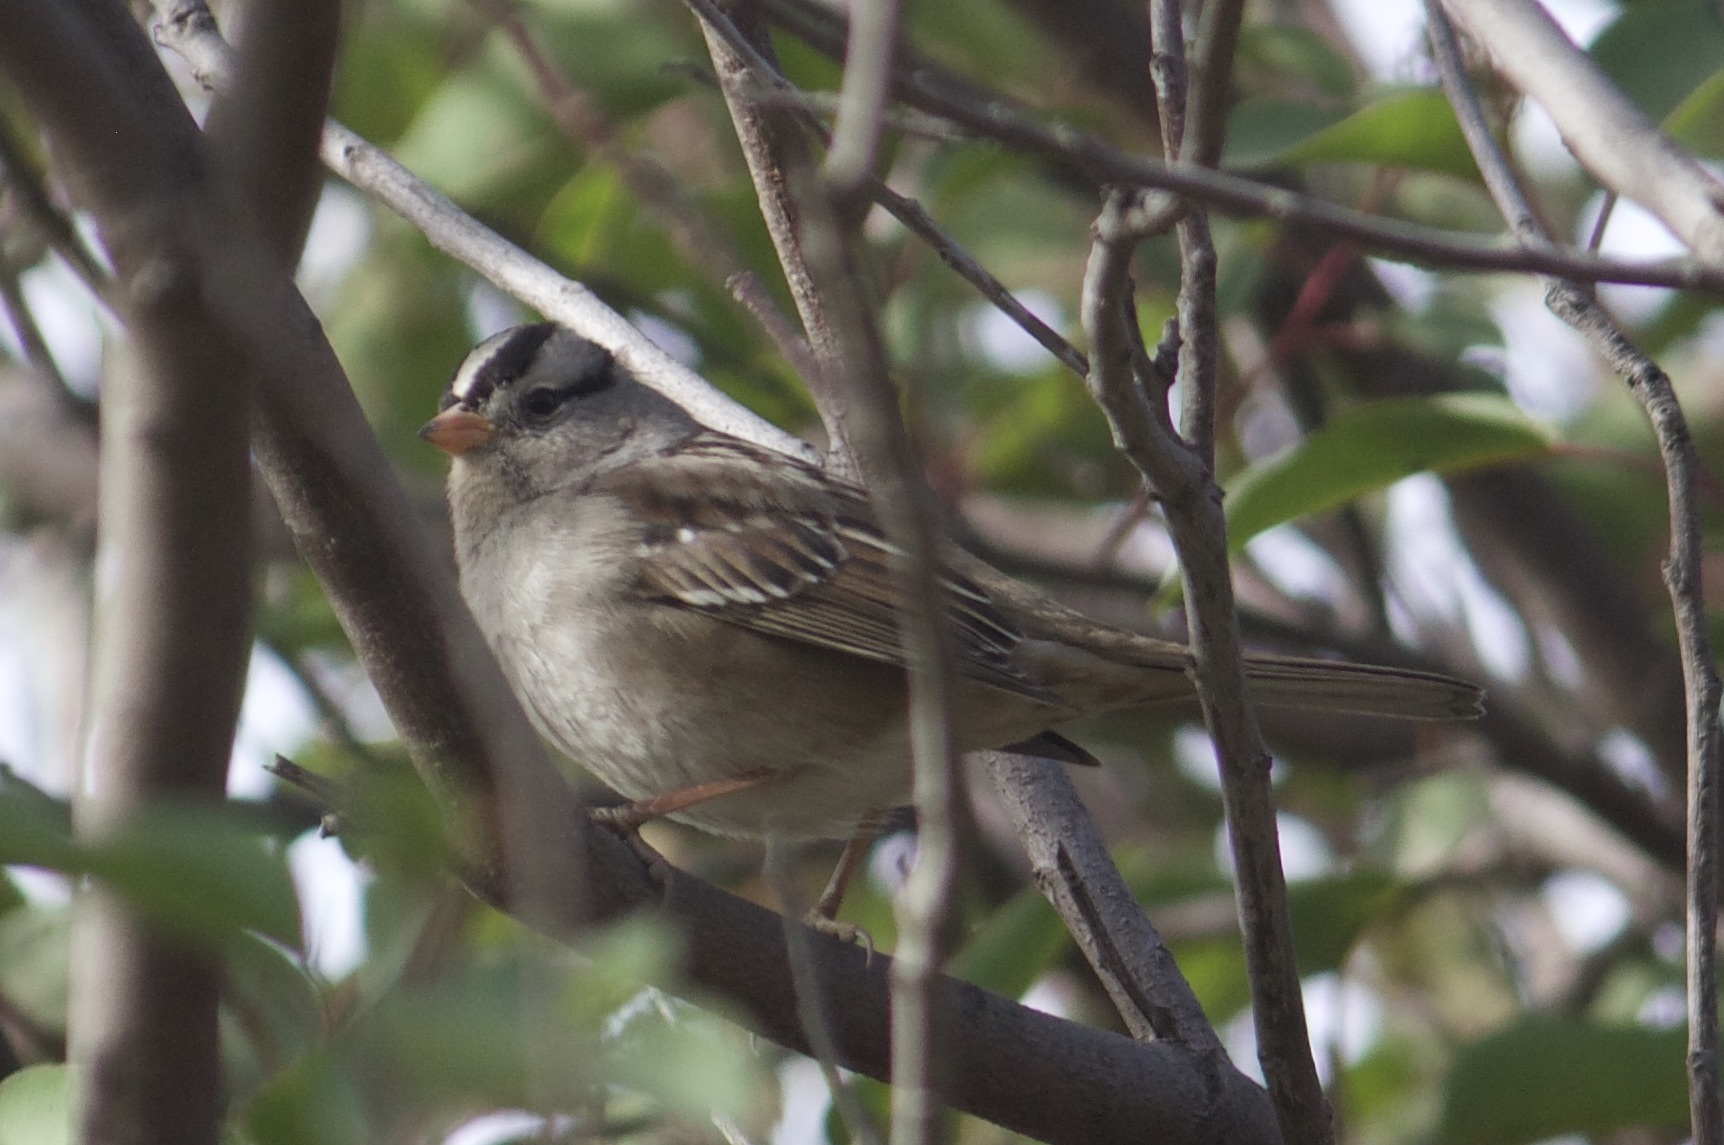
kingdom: Animalia
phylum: Chordata
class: Aves
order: Passeriformes
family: Passerellidae
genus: Zonotrichia
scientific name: Zonotrichia leucophrys
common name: White-crowned sparrow
